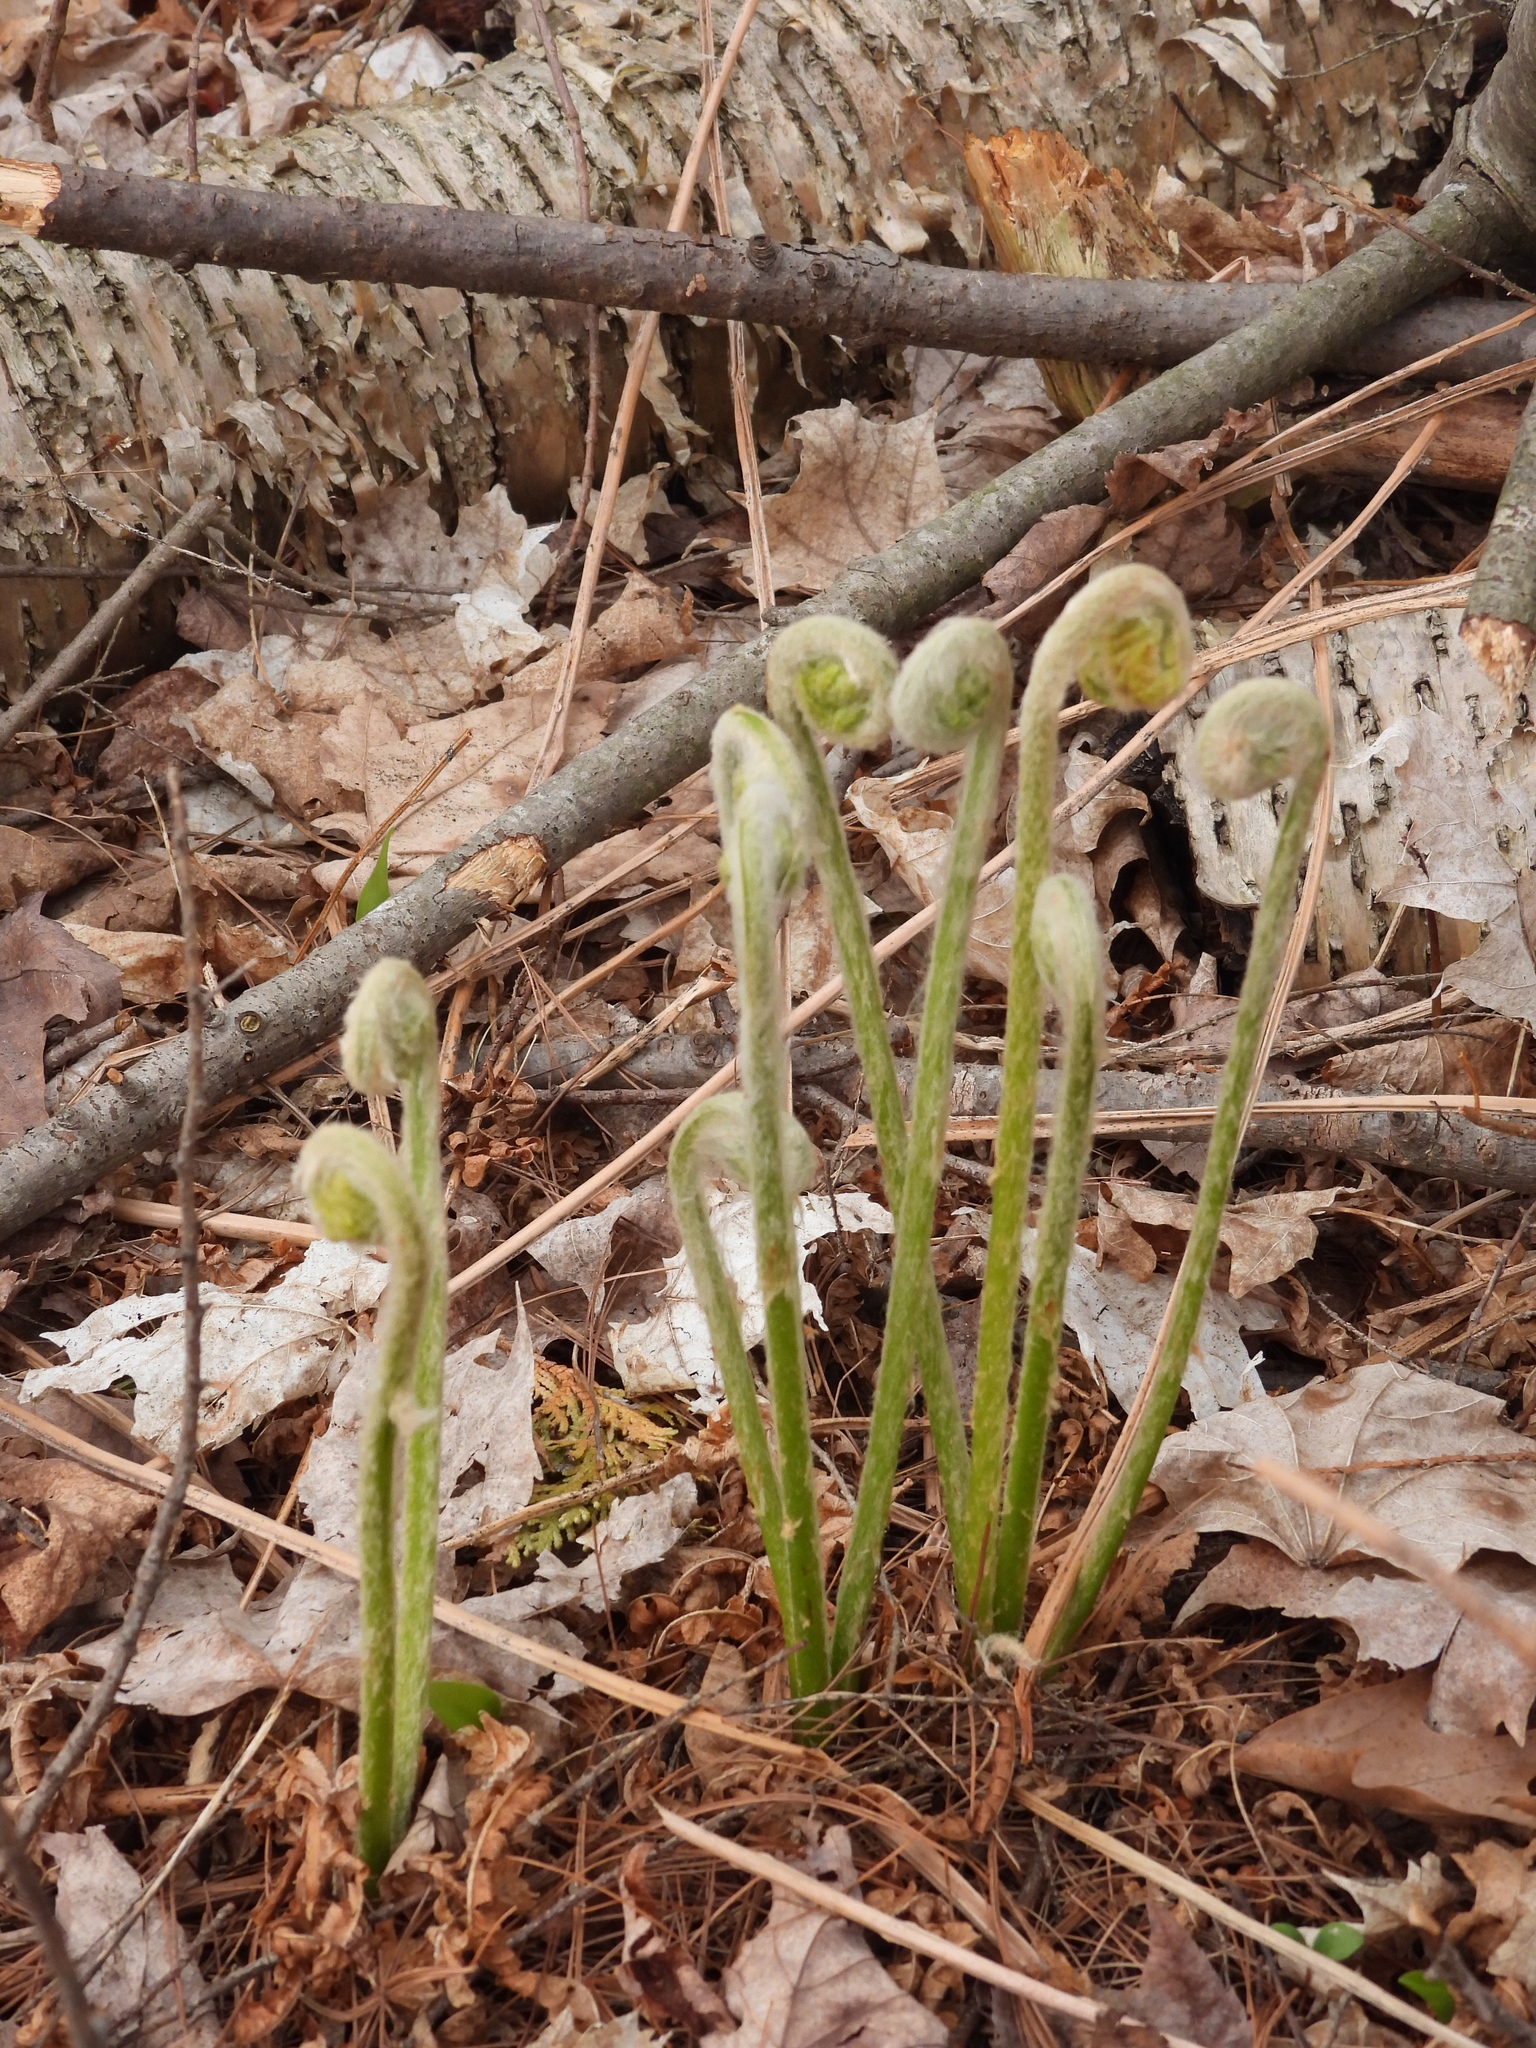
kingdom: Plantae
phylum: Tracheophyta
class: Polypodiopsida
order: Osmundales
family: Osmundaceae
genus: Osmundastrum
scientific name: Osmundastrum cinnamomeum
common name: Cinnamon fern
